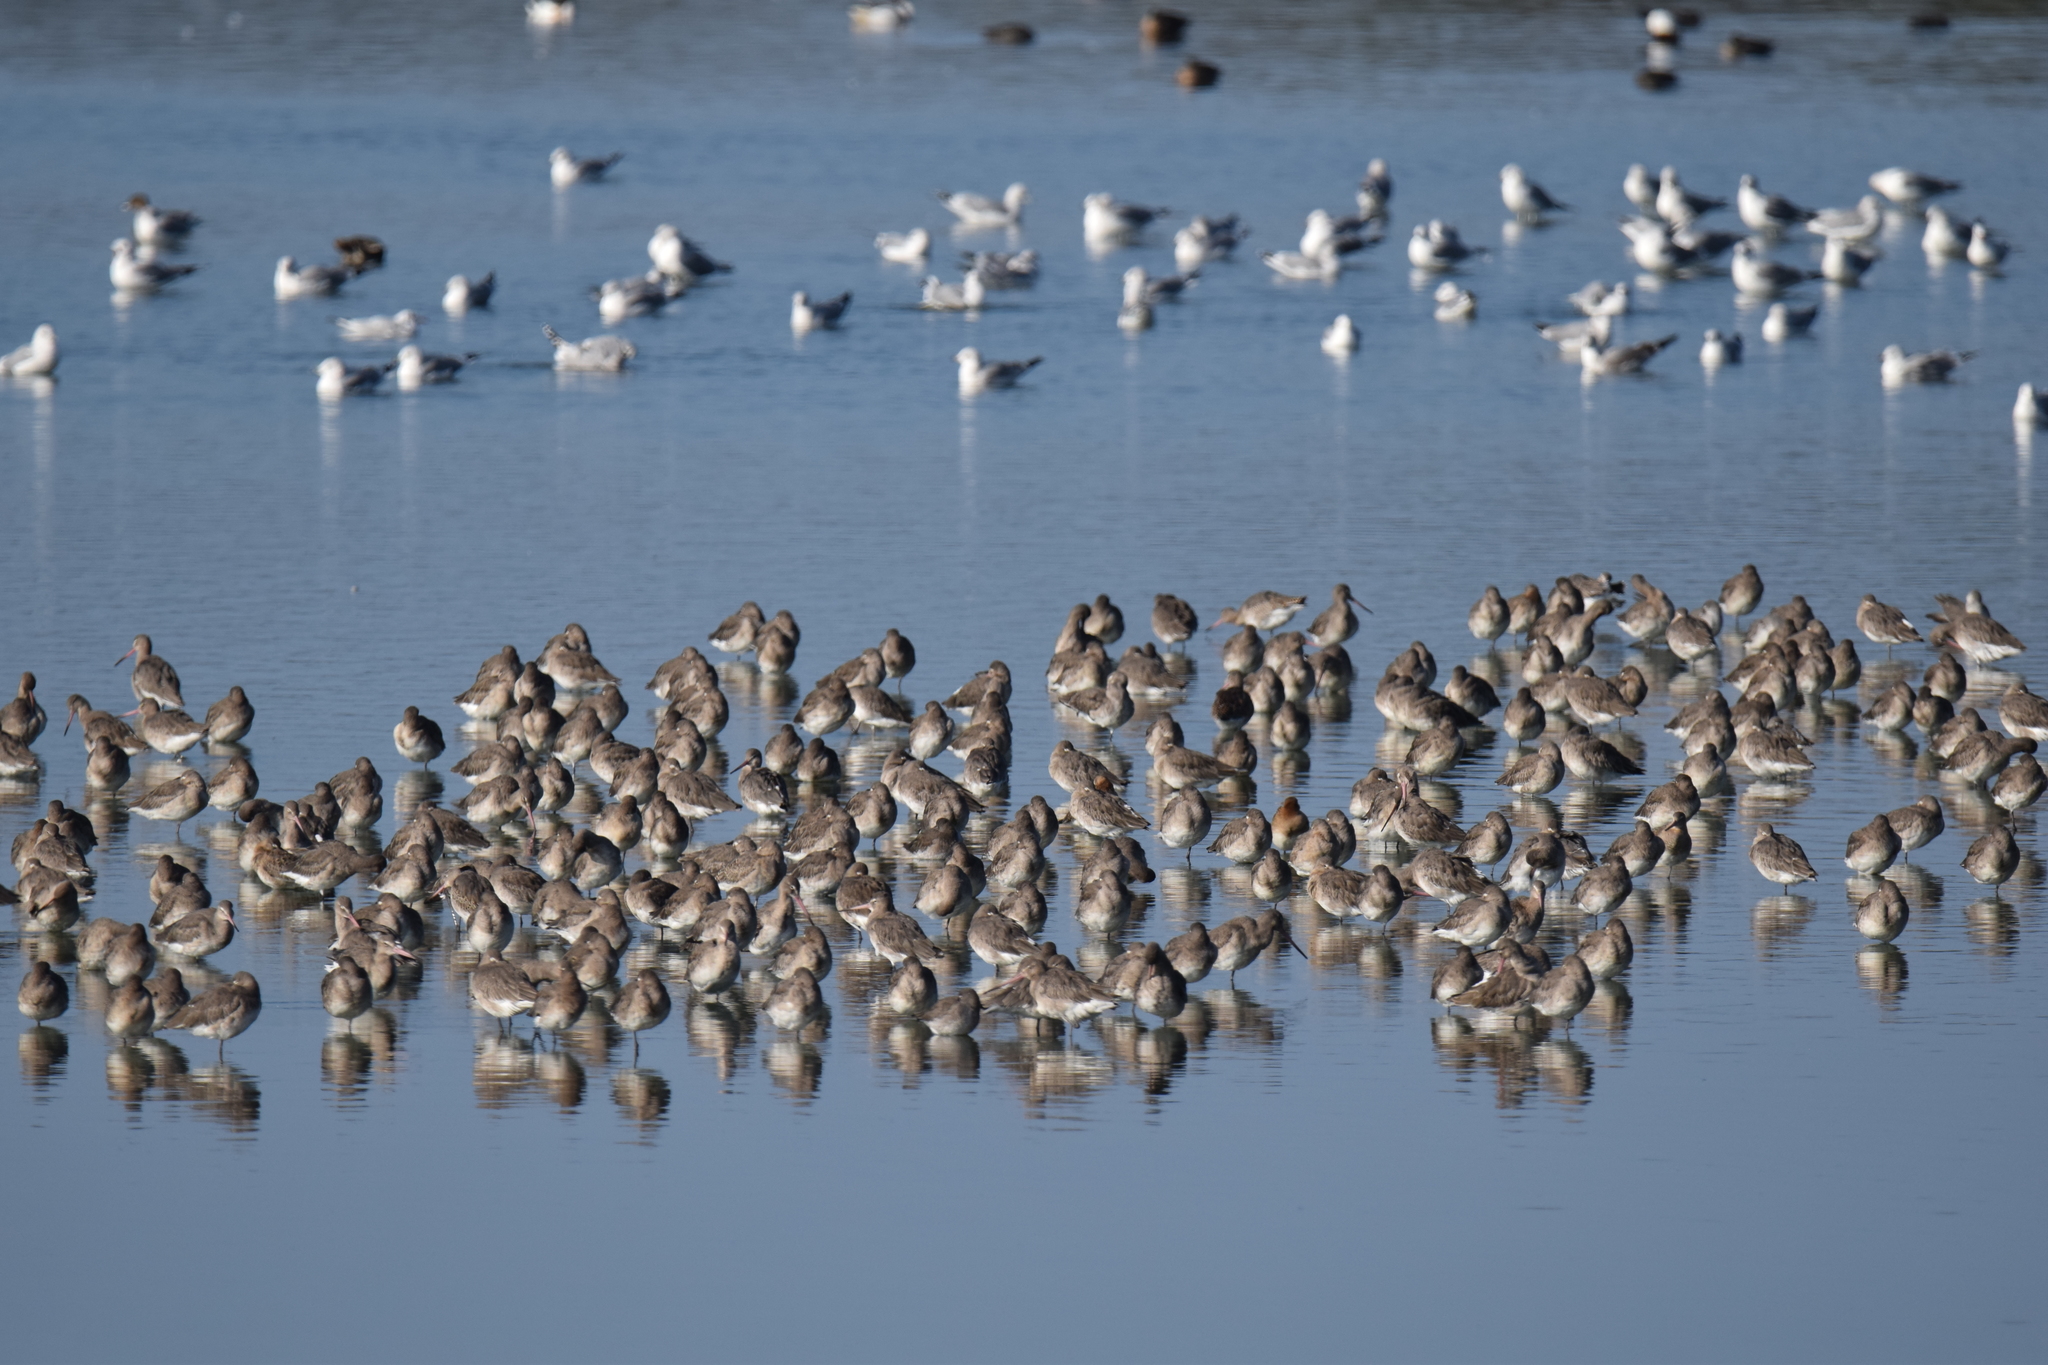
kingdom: Animalia
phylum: Chordata
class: Aves
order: Charadriiformes
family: Scolopacidae
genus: Limosa
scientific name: Limosa limosa
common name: Black-tailed godwit
